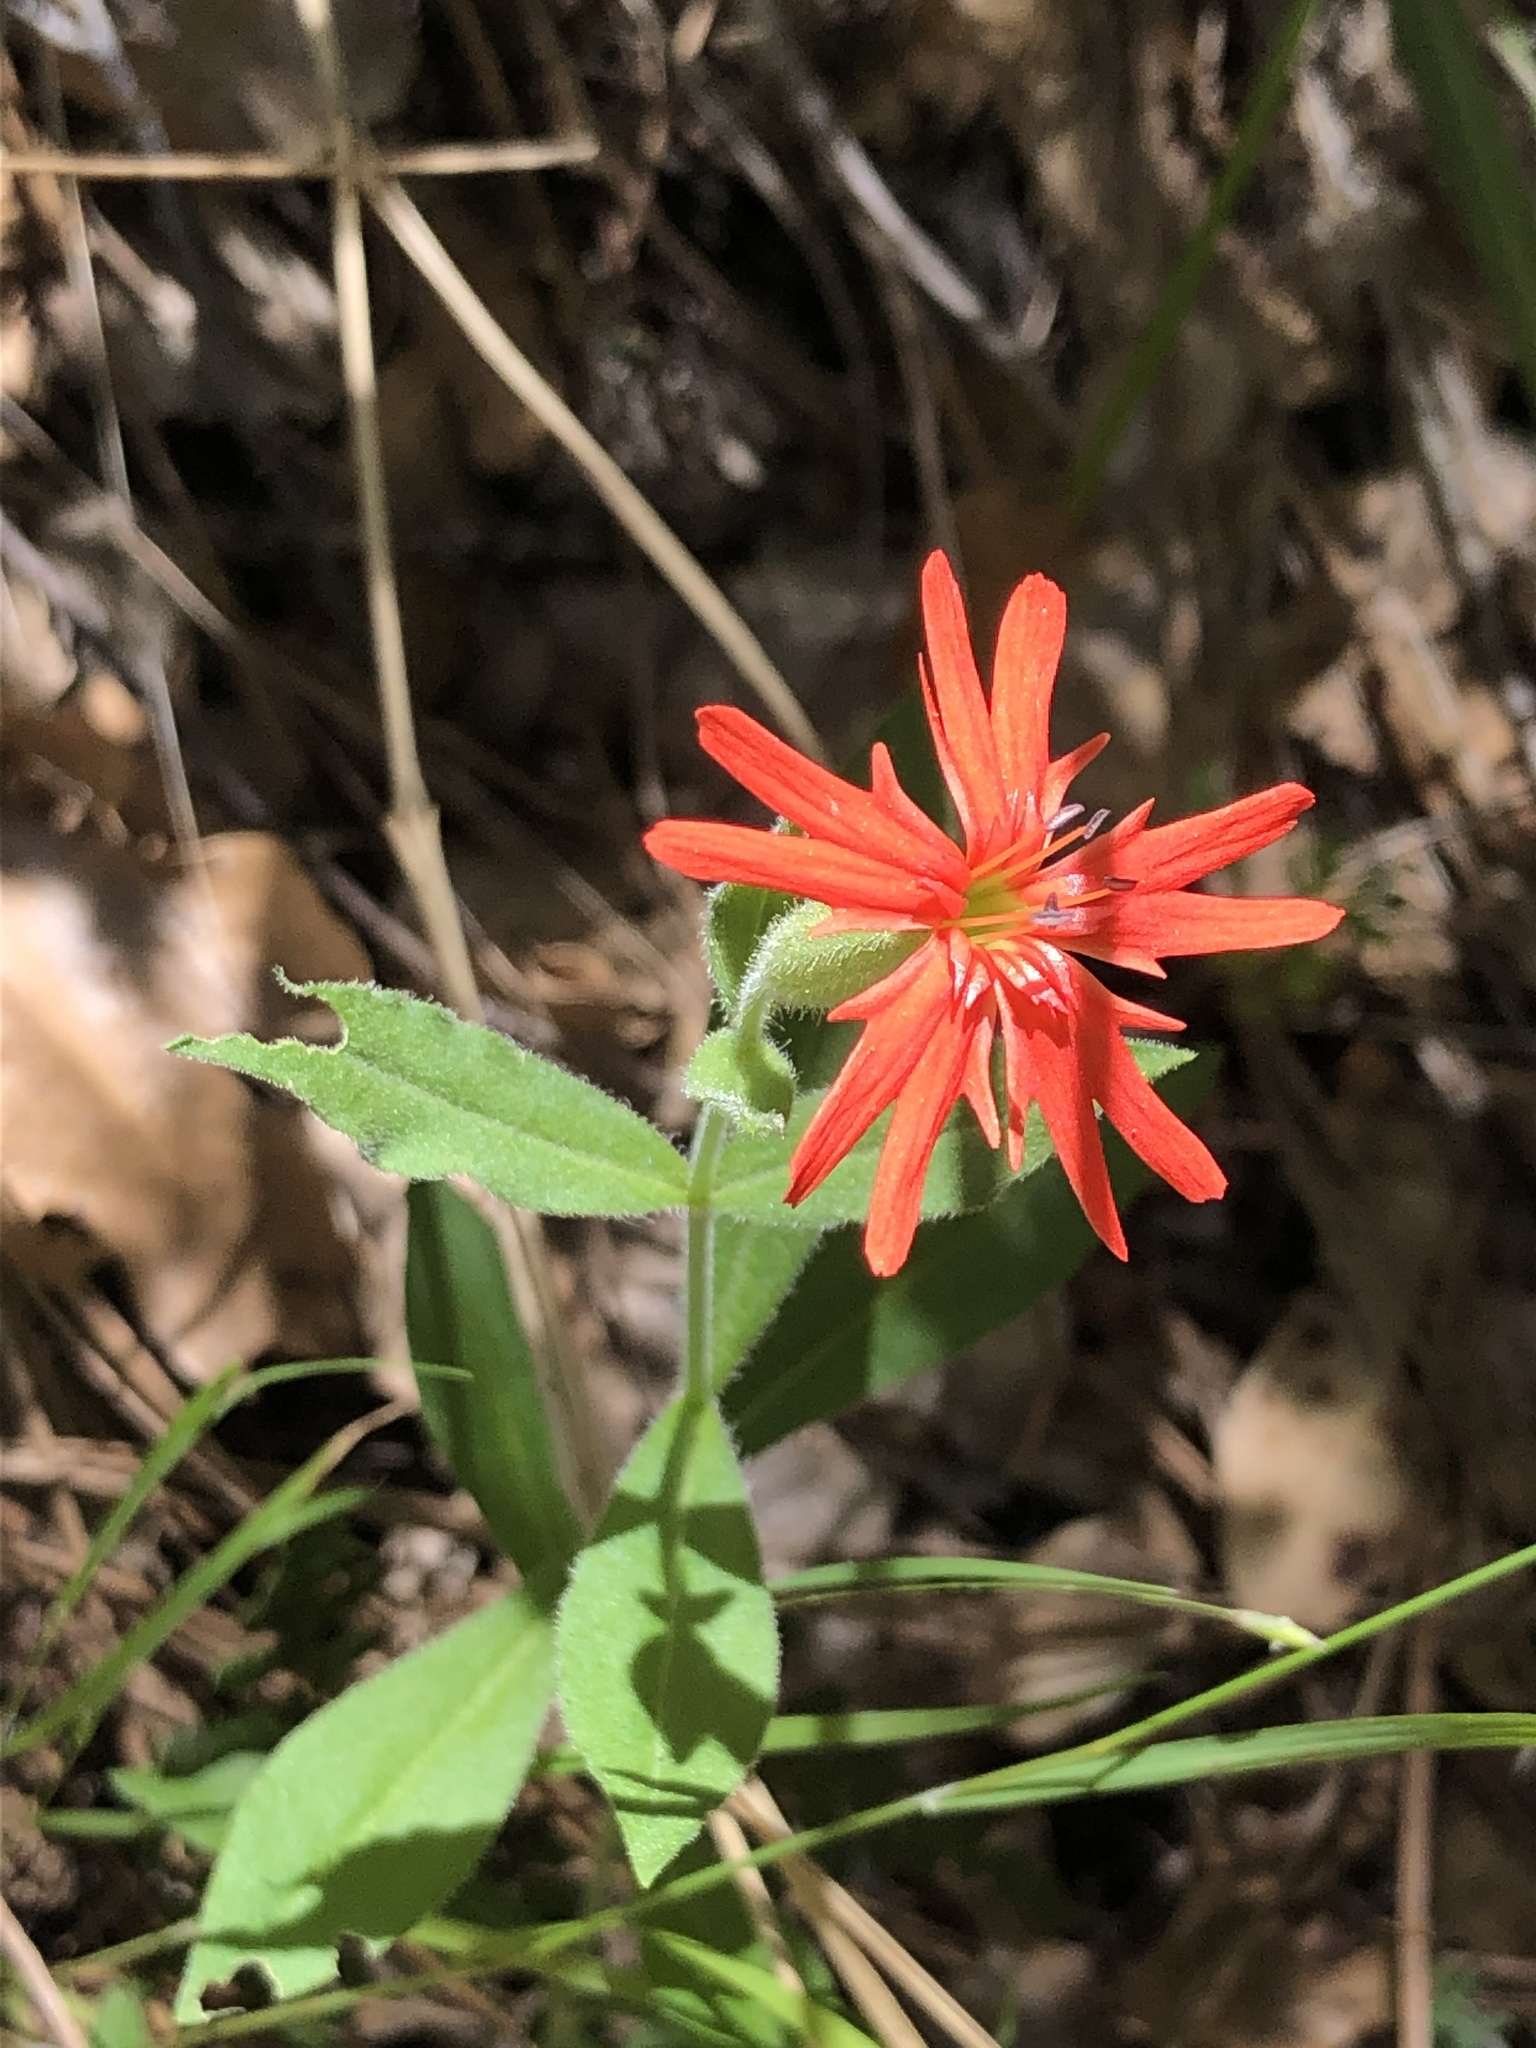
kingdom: Plantae
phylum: Tracheophyta
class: Magnoliopsida
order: Caryophyllales
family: Caryophyllaceae
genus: Silene
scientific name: Silene laciniata
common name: Indian-pink
